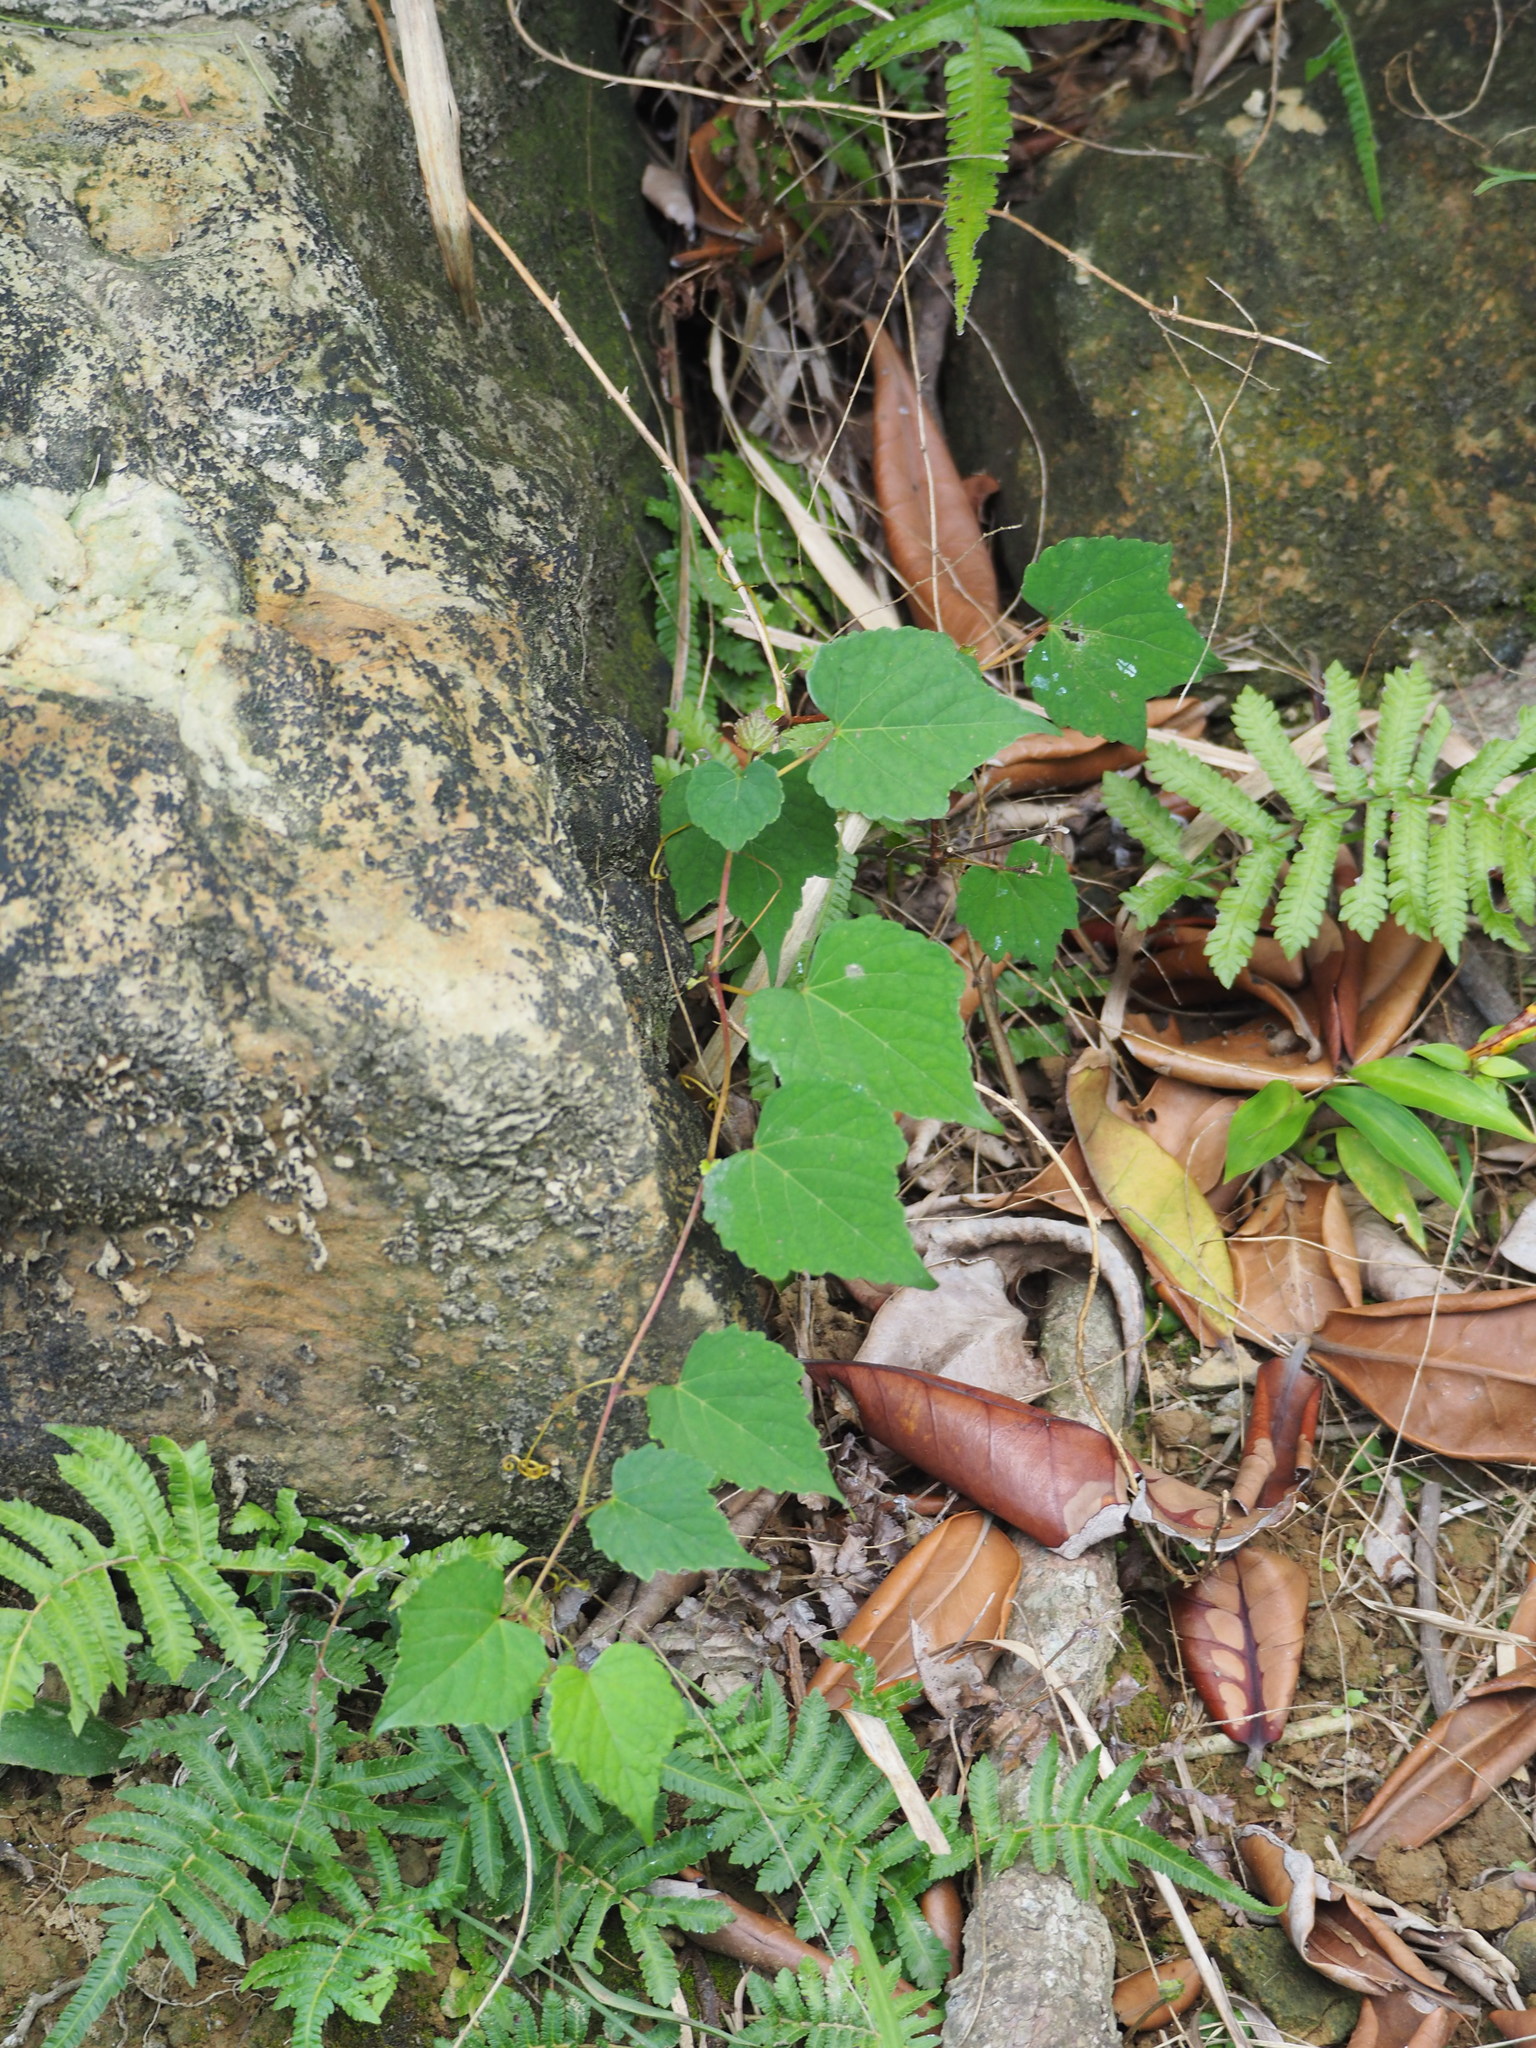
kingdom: Plantae
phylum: Tracheophyta
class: Magnoliopsida
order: Vitales
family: Vitaceae
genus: Ampelopsis
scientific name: Ampelopsis glandulosa
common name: Amur peppervine
